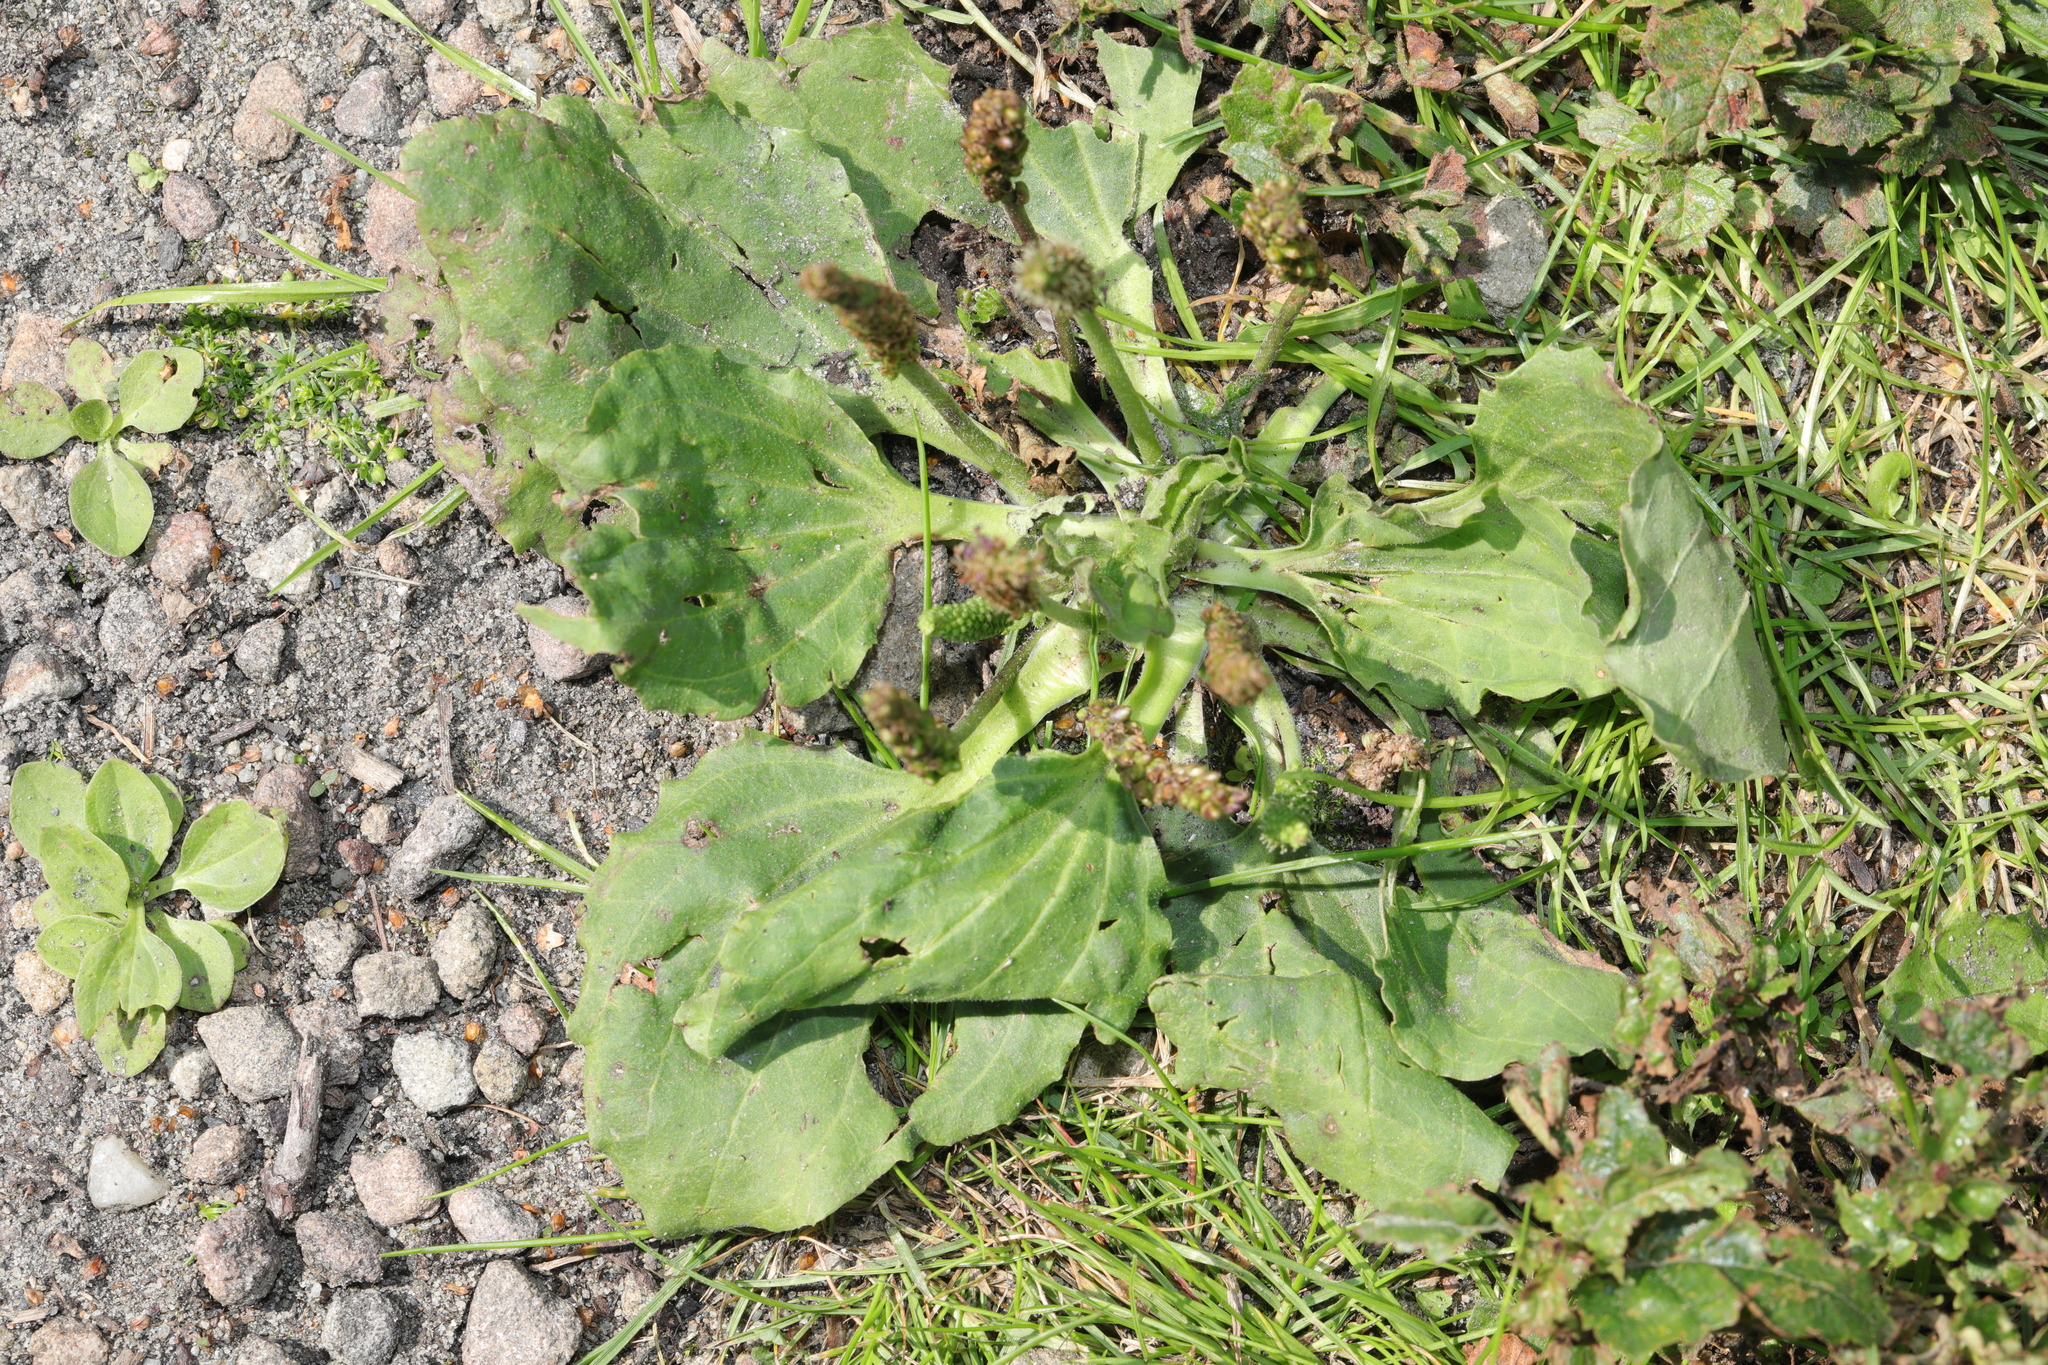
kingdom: Plantae
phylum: Tracheophyta
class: Magnoliopsida
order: Lamiales
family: Plantaginaceae
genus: Plantago
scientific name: Plantago major
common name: Common plantain
